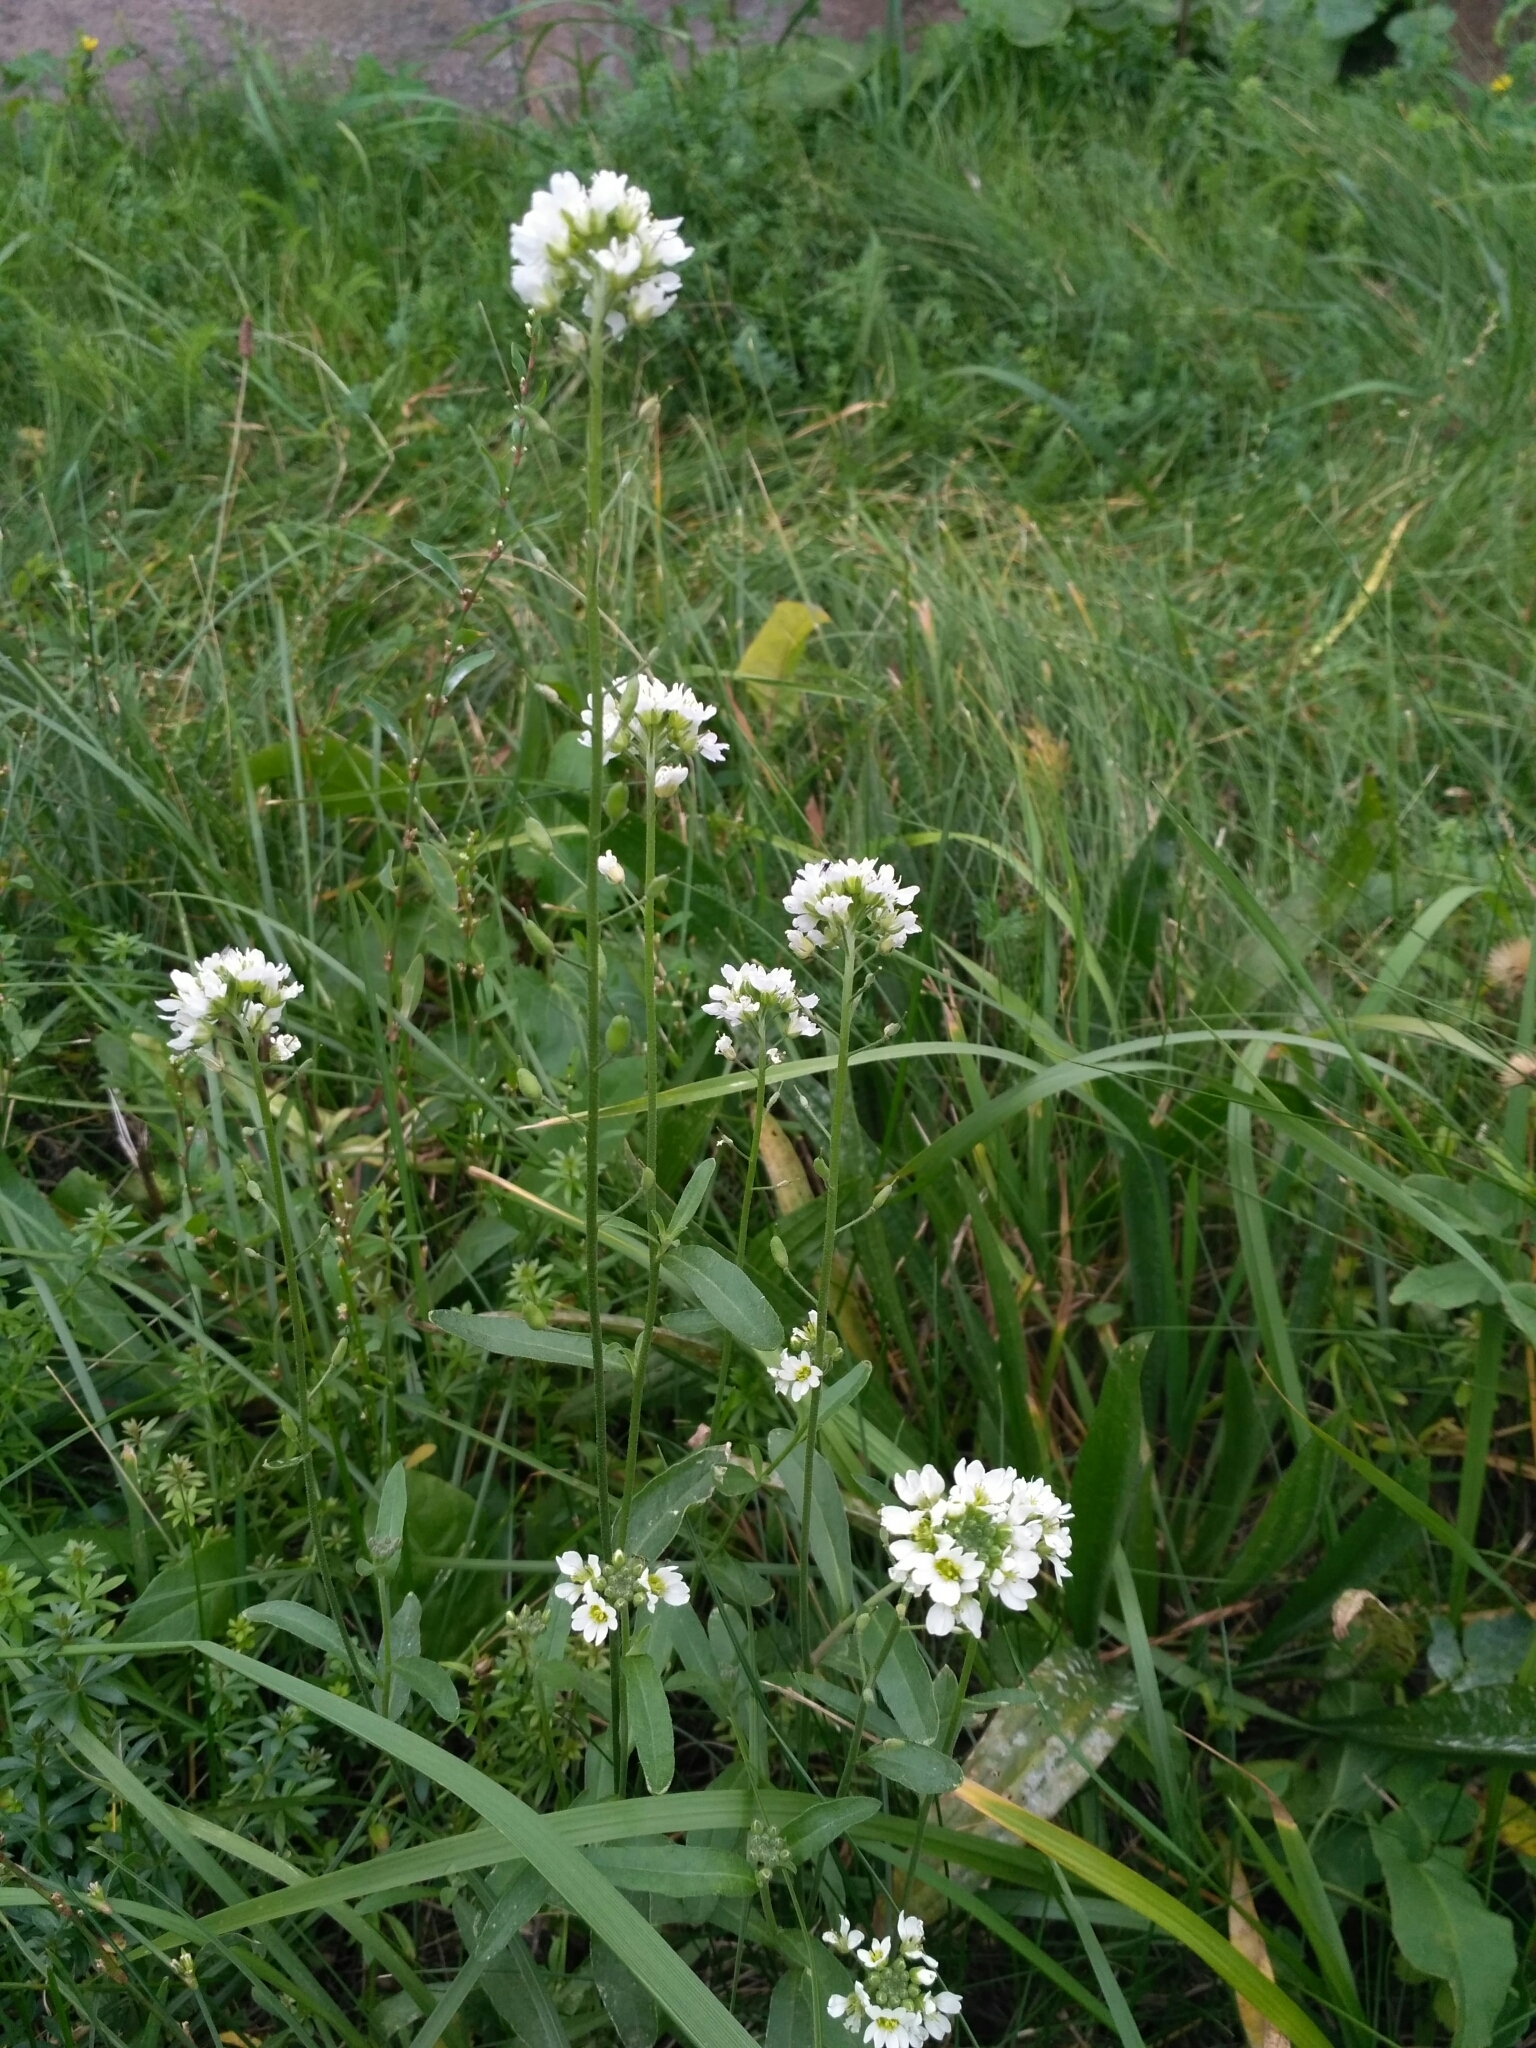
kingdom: Plantae
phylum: Tracheophyta
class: Magnoliopsida
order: Brassicales
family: Brassicaceae
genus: Berteroa
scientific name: Berteroa incana
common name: Hoary alison
